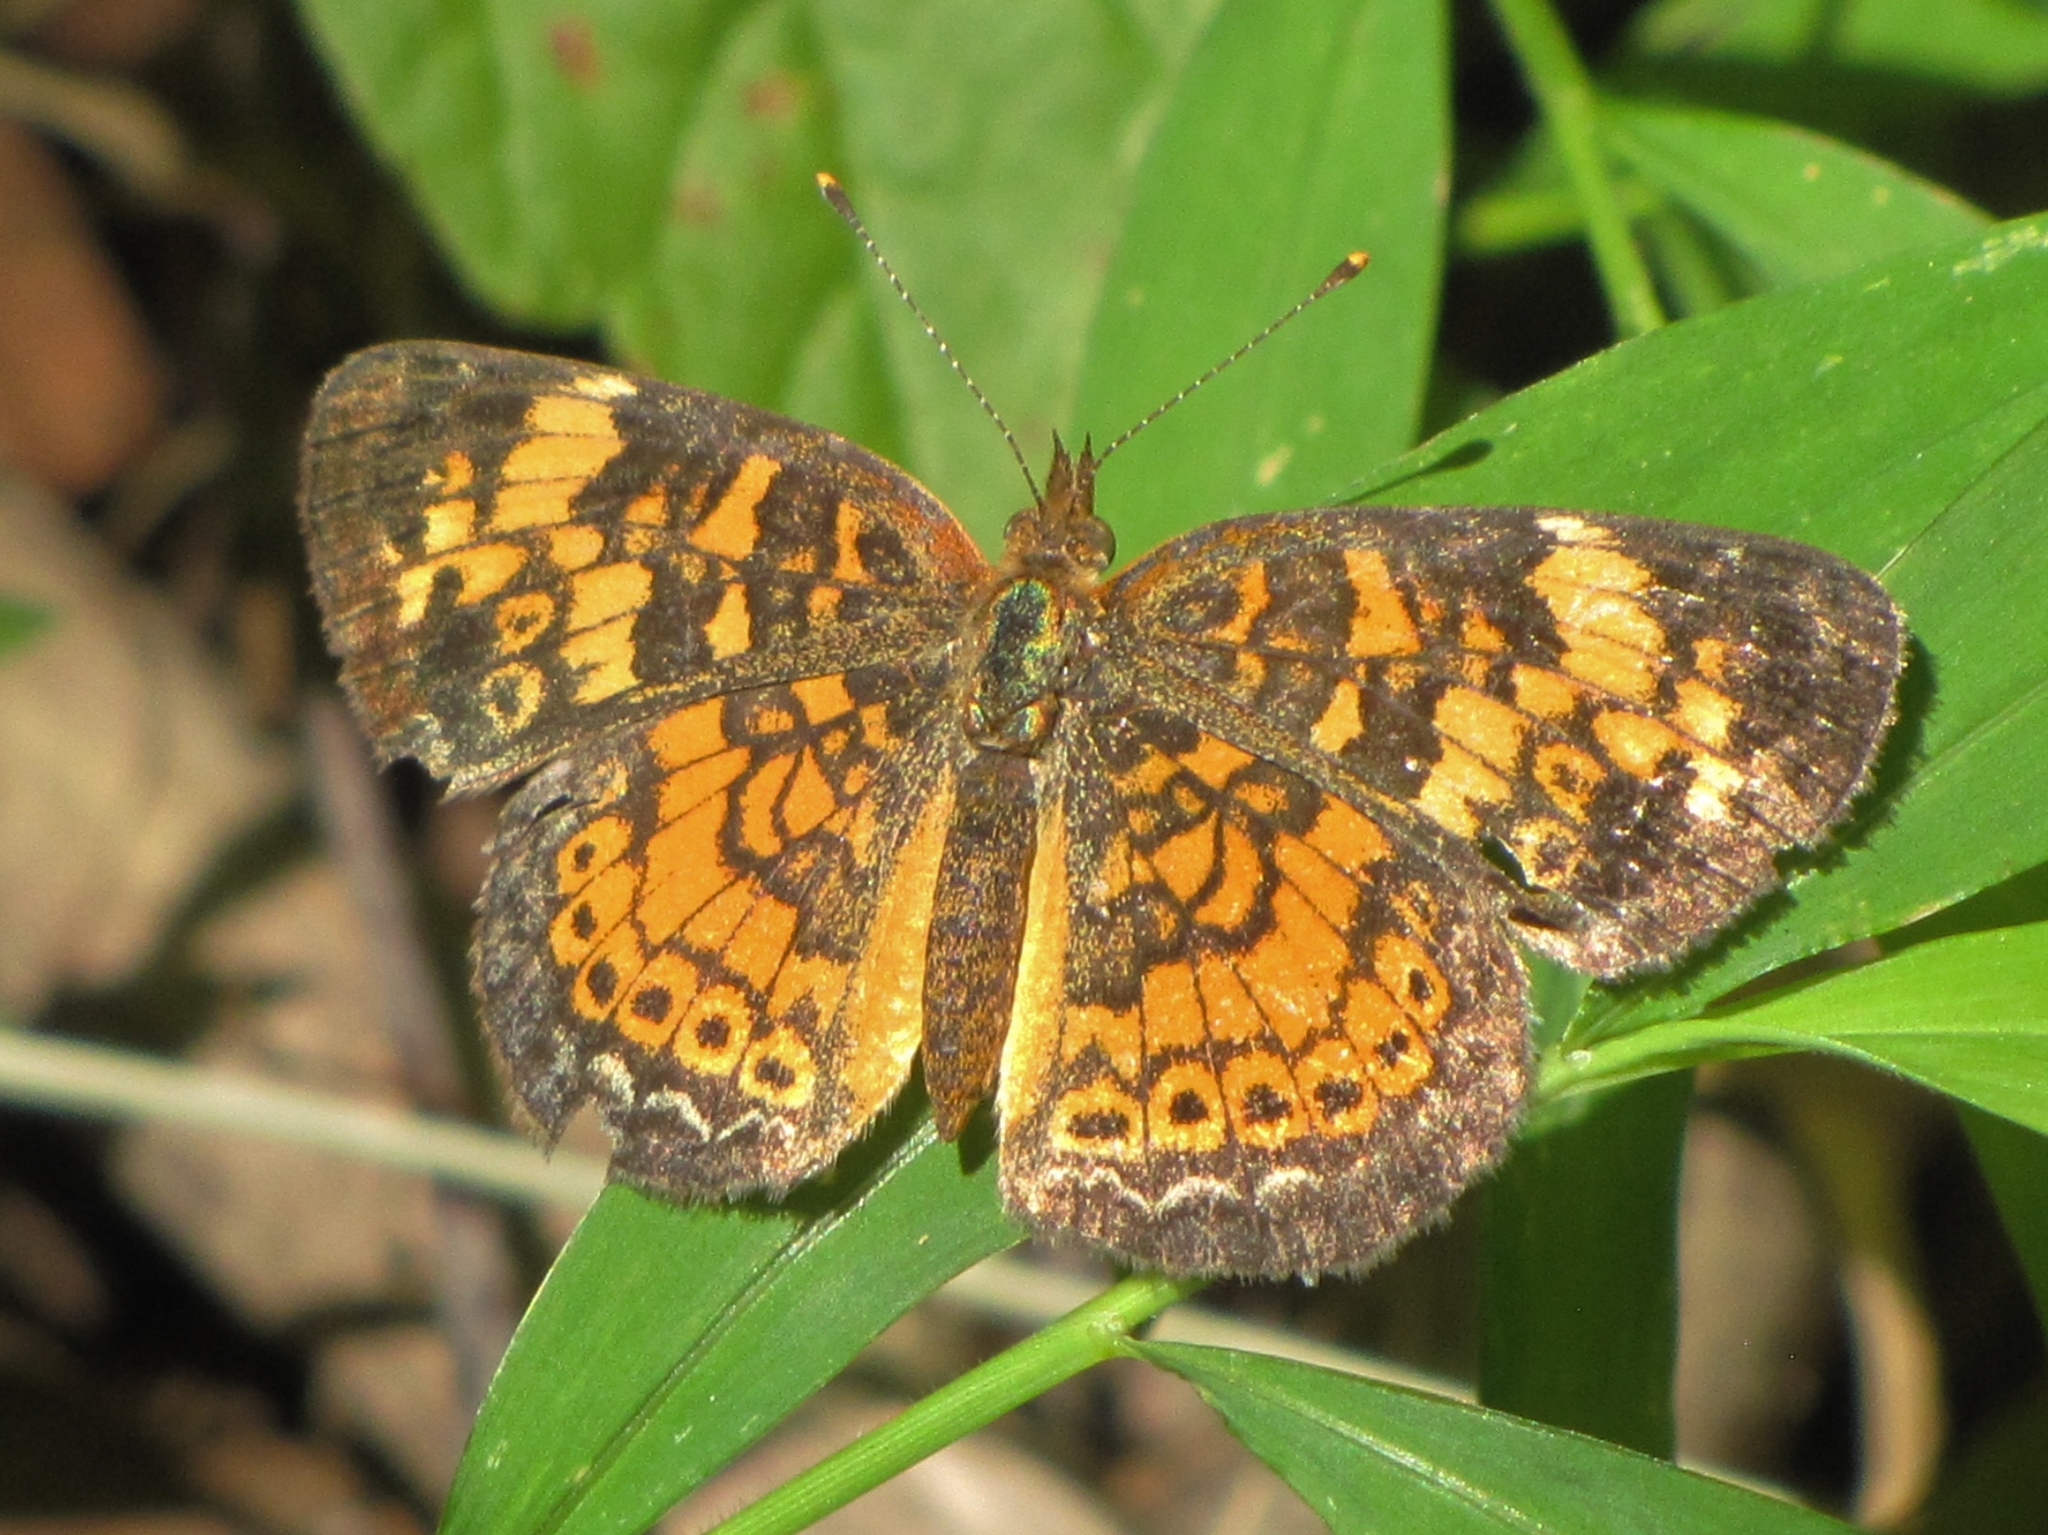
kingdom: Animalia
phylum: Arthropoda
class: Insecta
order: Lepidoptera
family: Nymphalidae
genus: Phyciodes
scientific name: Phyciodes tharos
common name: Pearl crescent
